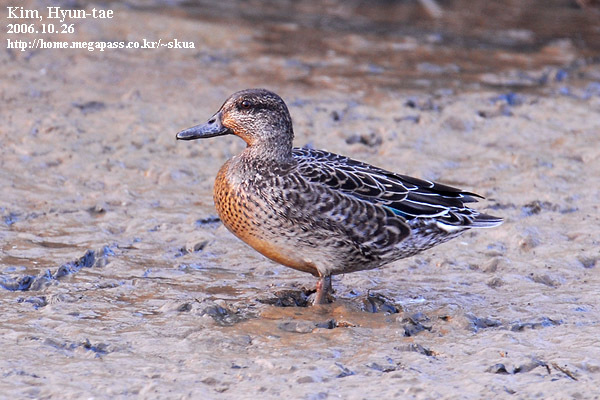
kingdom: Animalia
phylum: Chordata
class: Aves
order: Anseriformes
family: Anatidae
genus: Anas
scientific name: Anas crecca
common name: Eurasian teal
